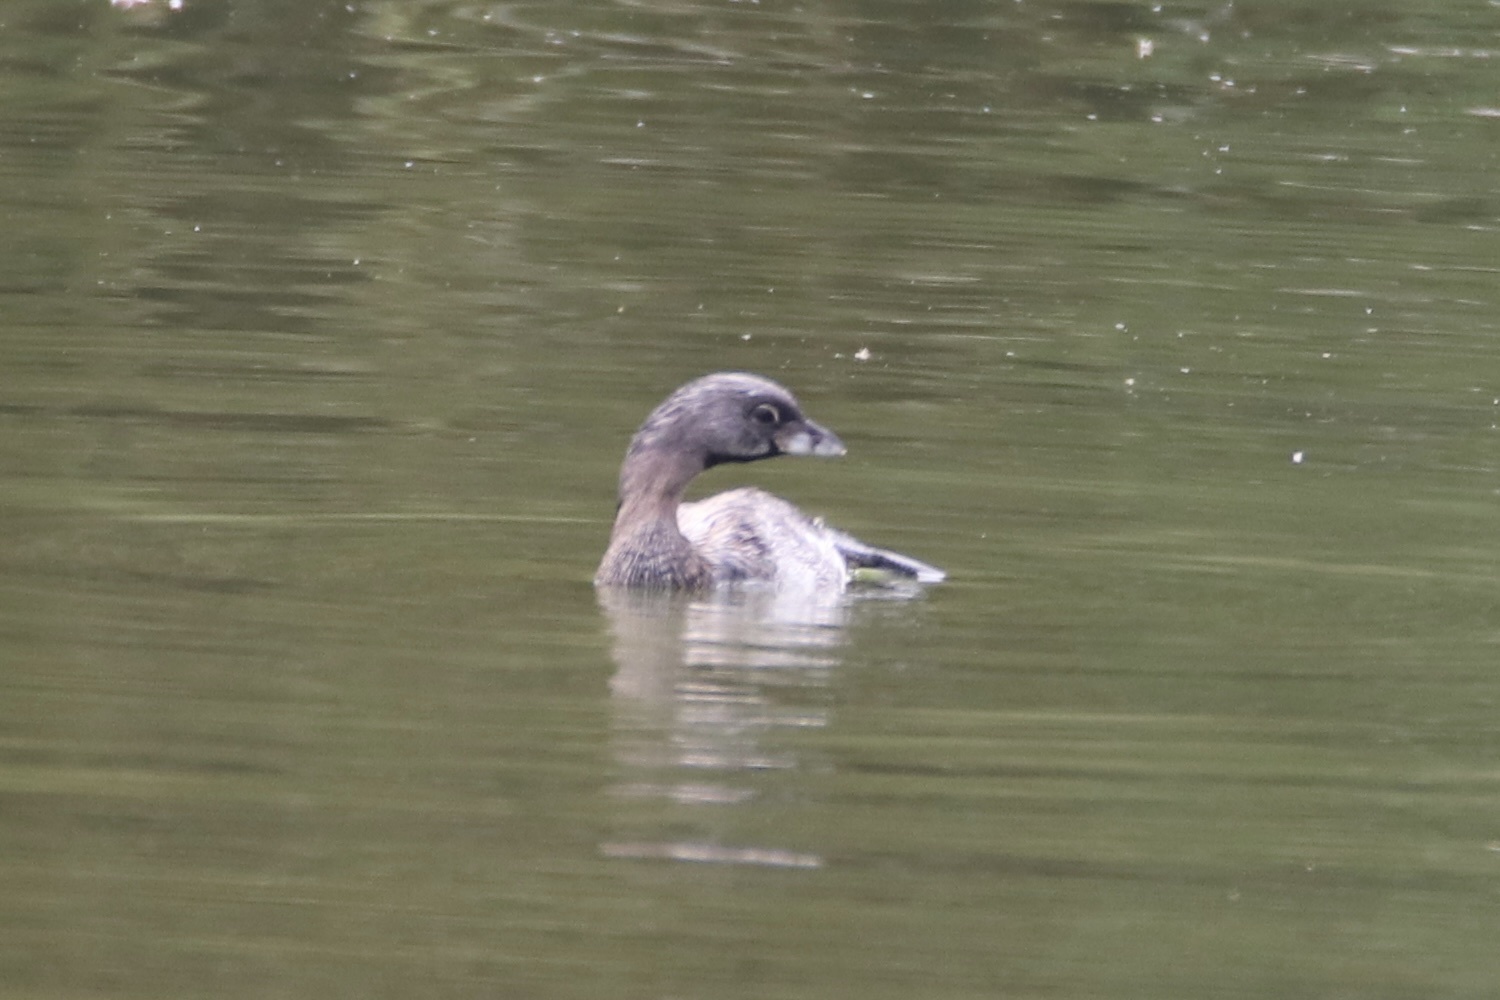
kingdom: Animalia
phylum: Chordata
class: Aves
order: Podicipediformes
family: Podicipedidae
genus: Podilymbus
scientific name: Podilymbus podiceps
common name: Pied-billed grebe
